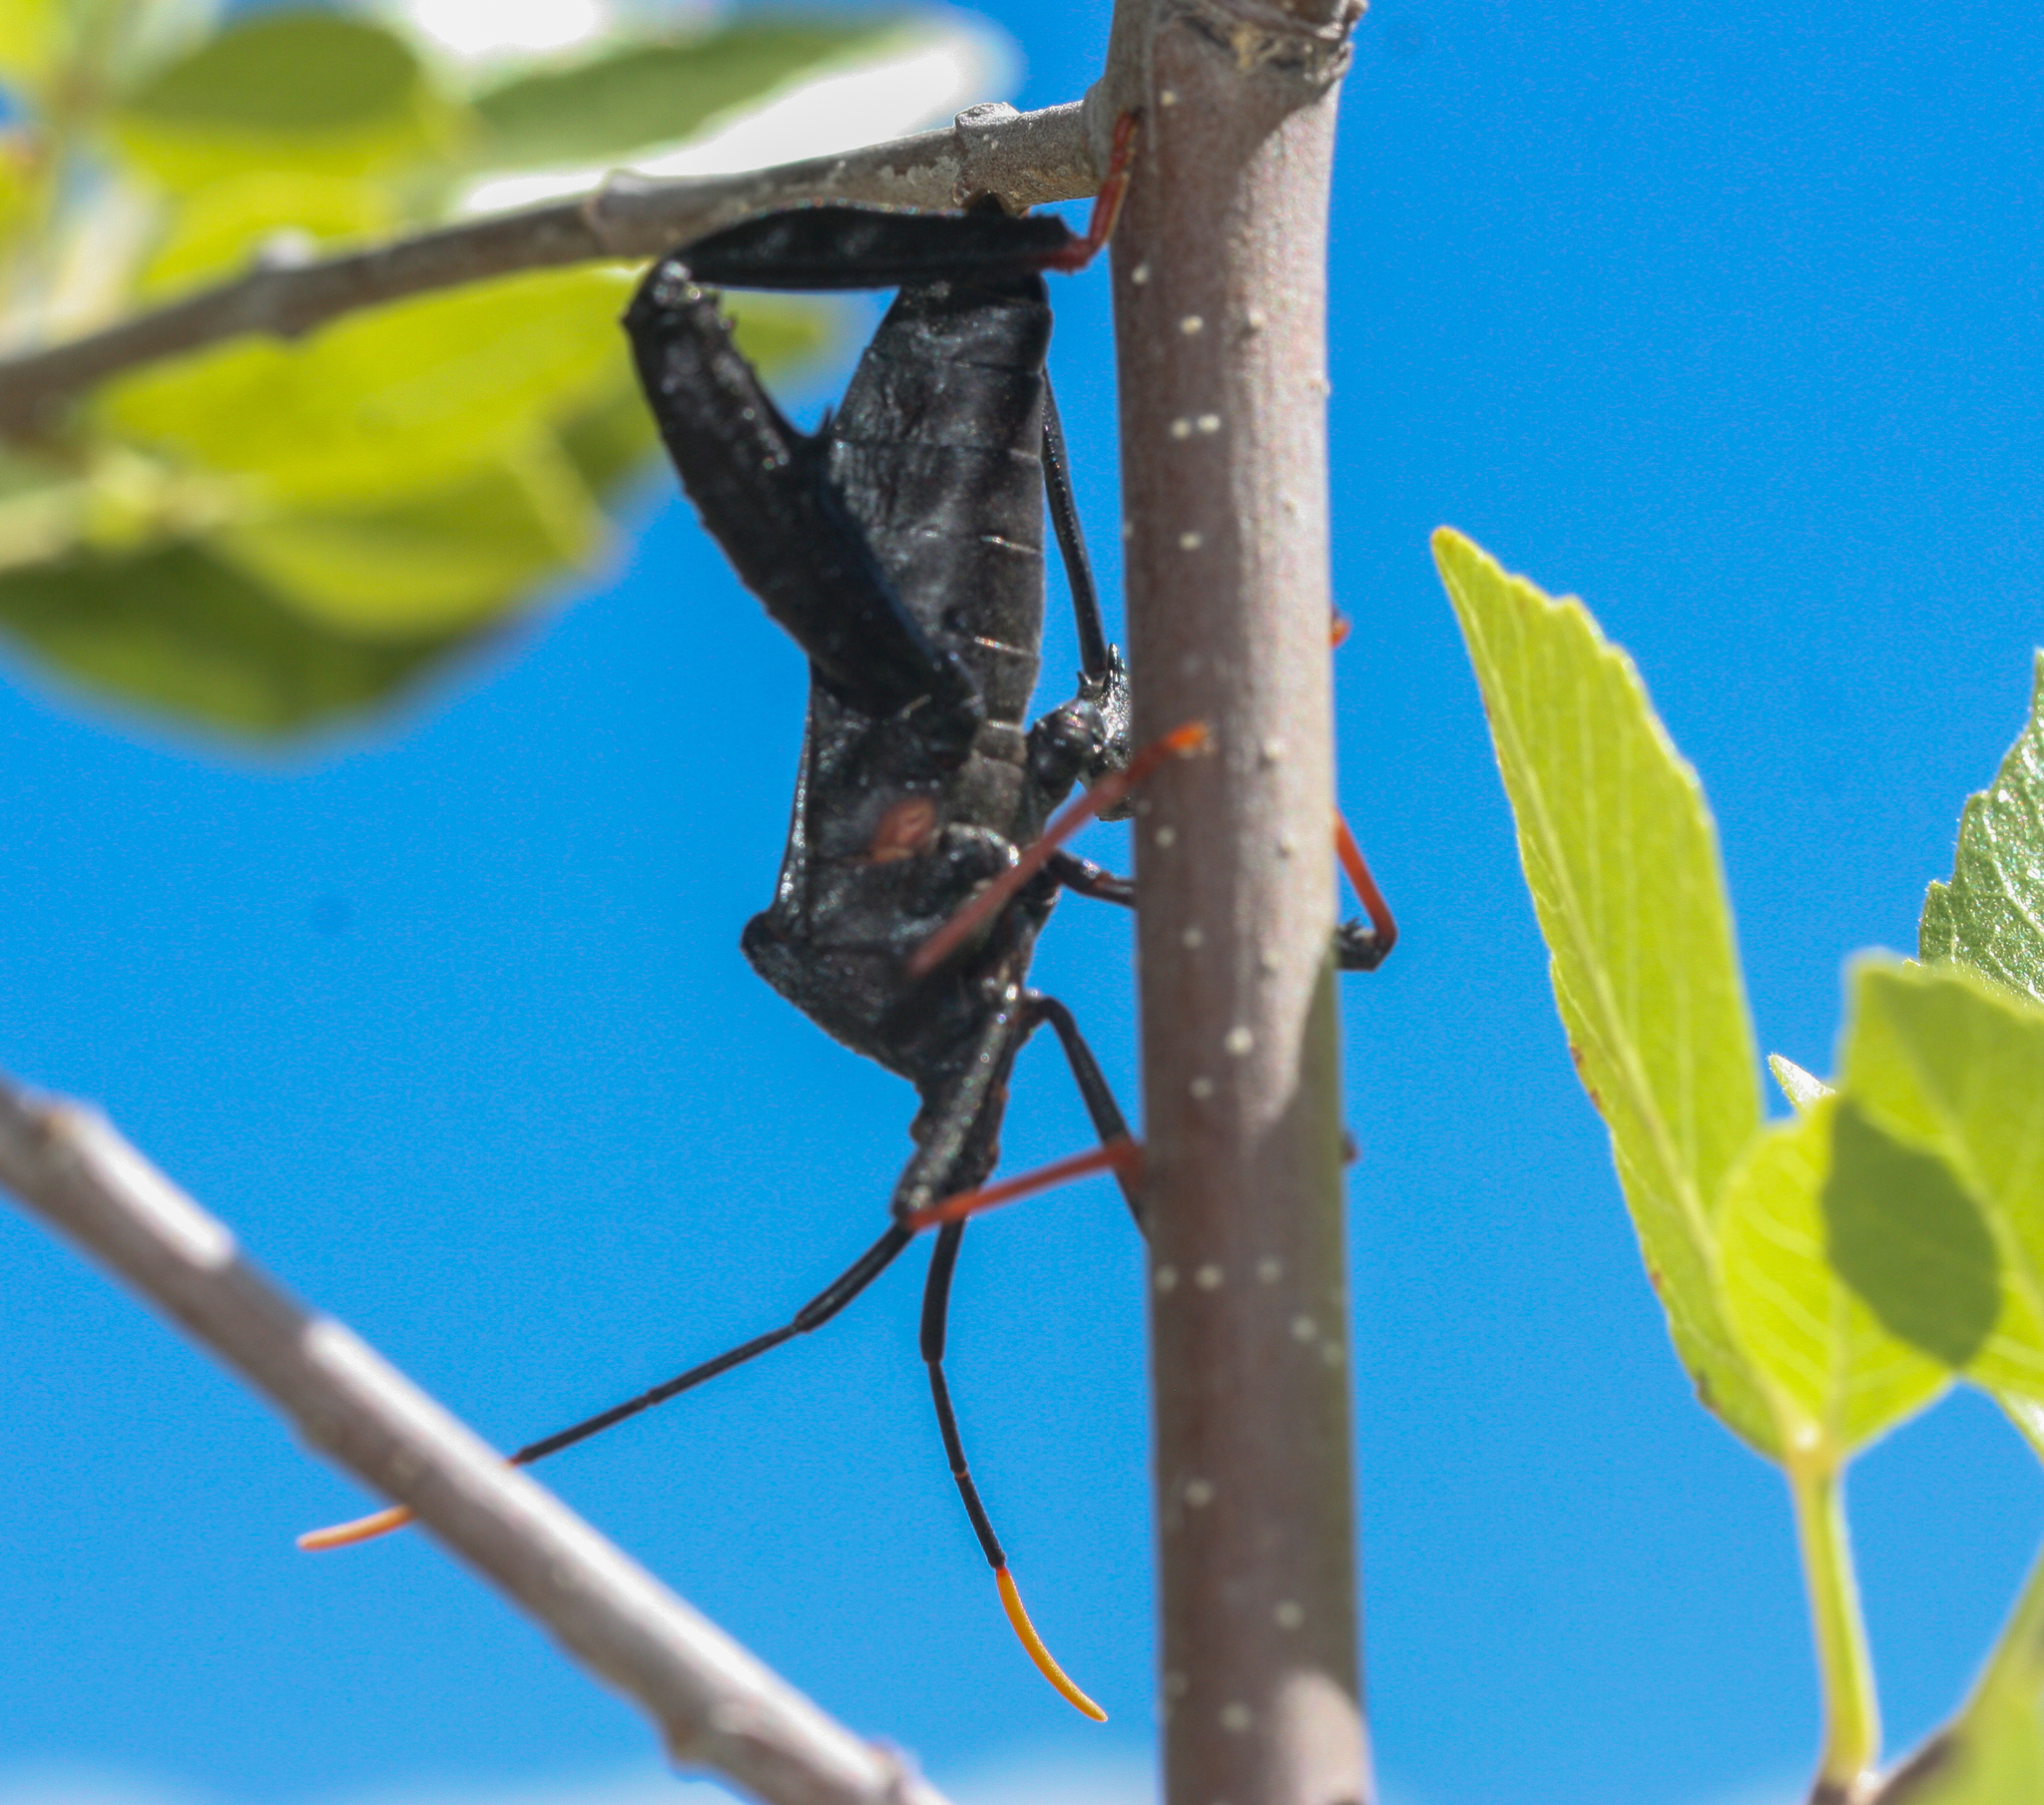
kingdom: Animalia
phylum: Arthropoda
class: Insecta
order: Hemiptera
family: Coreidae
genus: Acanthocephala
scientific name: Acanthocephala thomasi
